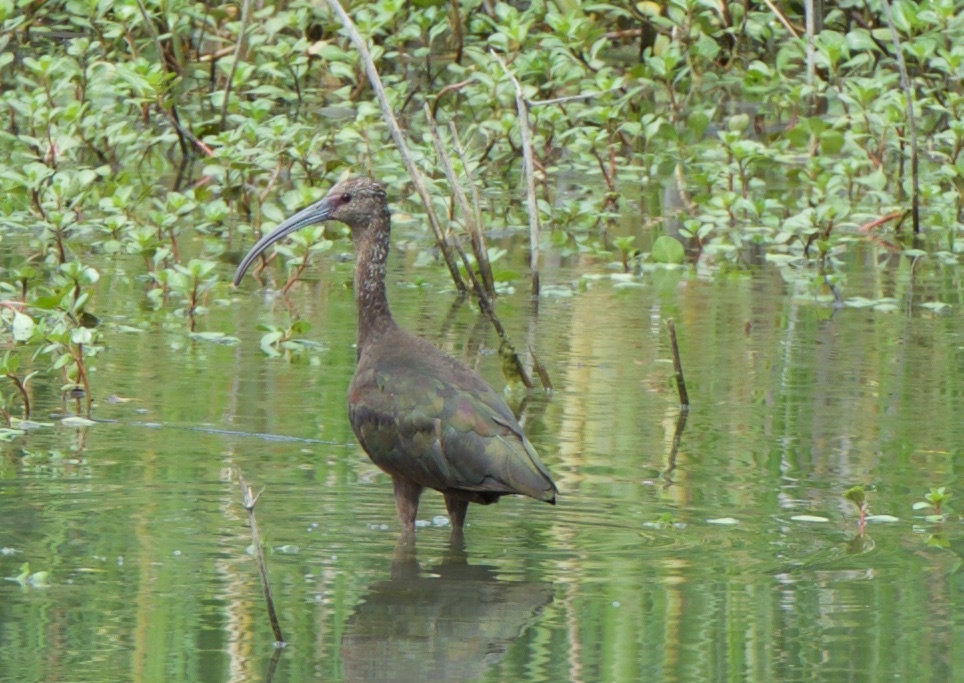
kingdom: Animalia
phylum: Chordata
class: Aves
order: Pelecaniformes
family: Threskiornithidae
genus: Plegadis
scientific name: Plegadis chihi
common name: White-faced ibis
